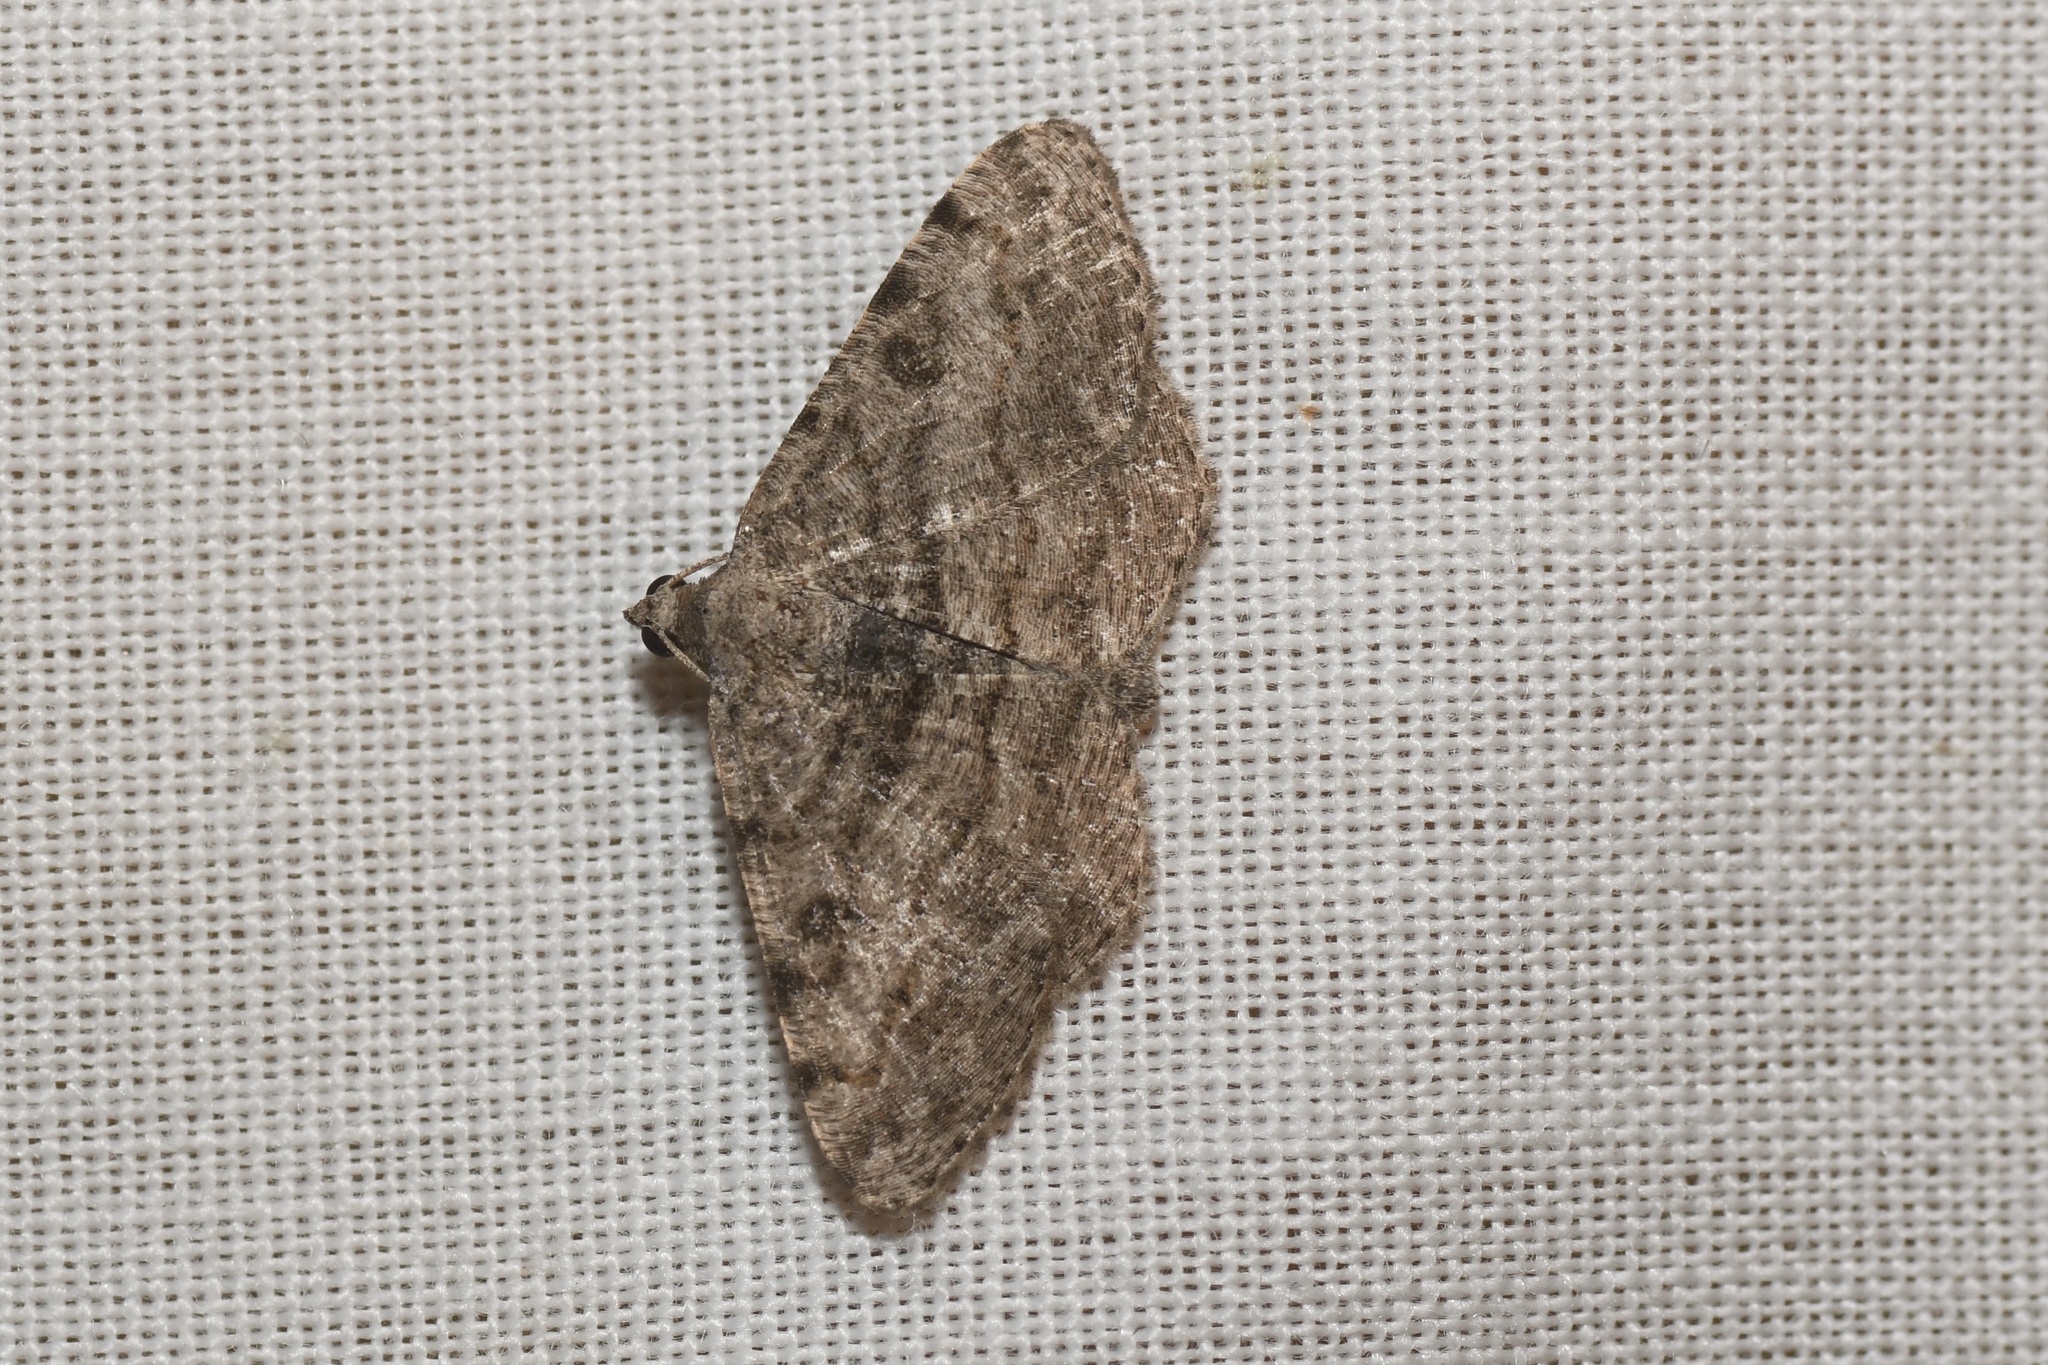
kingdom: Animalia
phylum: Arthropoda
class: Insecta
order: Lepidoptera
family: Geometridae
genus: Digrammia
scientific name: Digrammia gnophosaria
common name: Hollow-spotted angle
